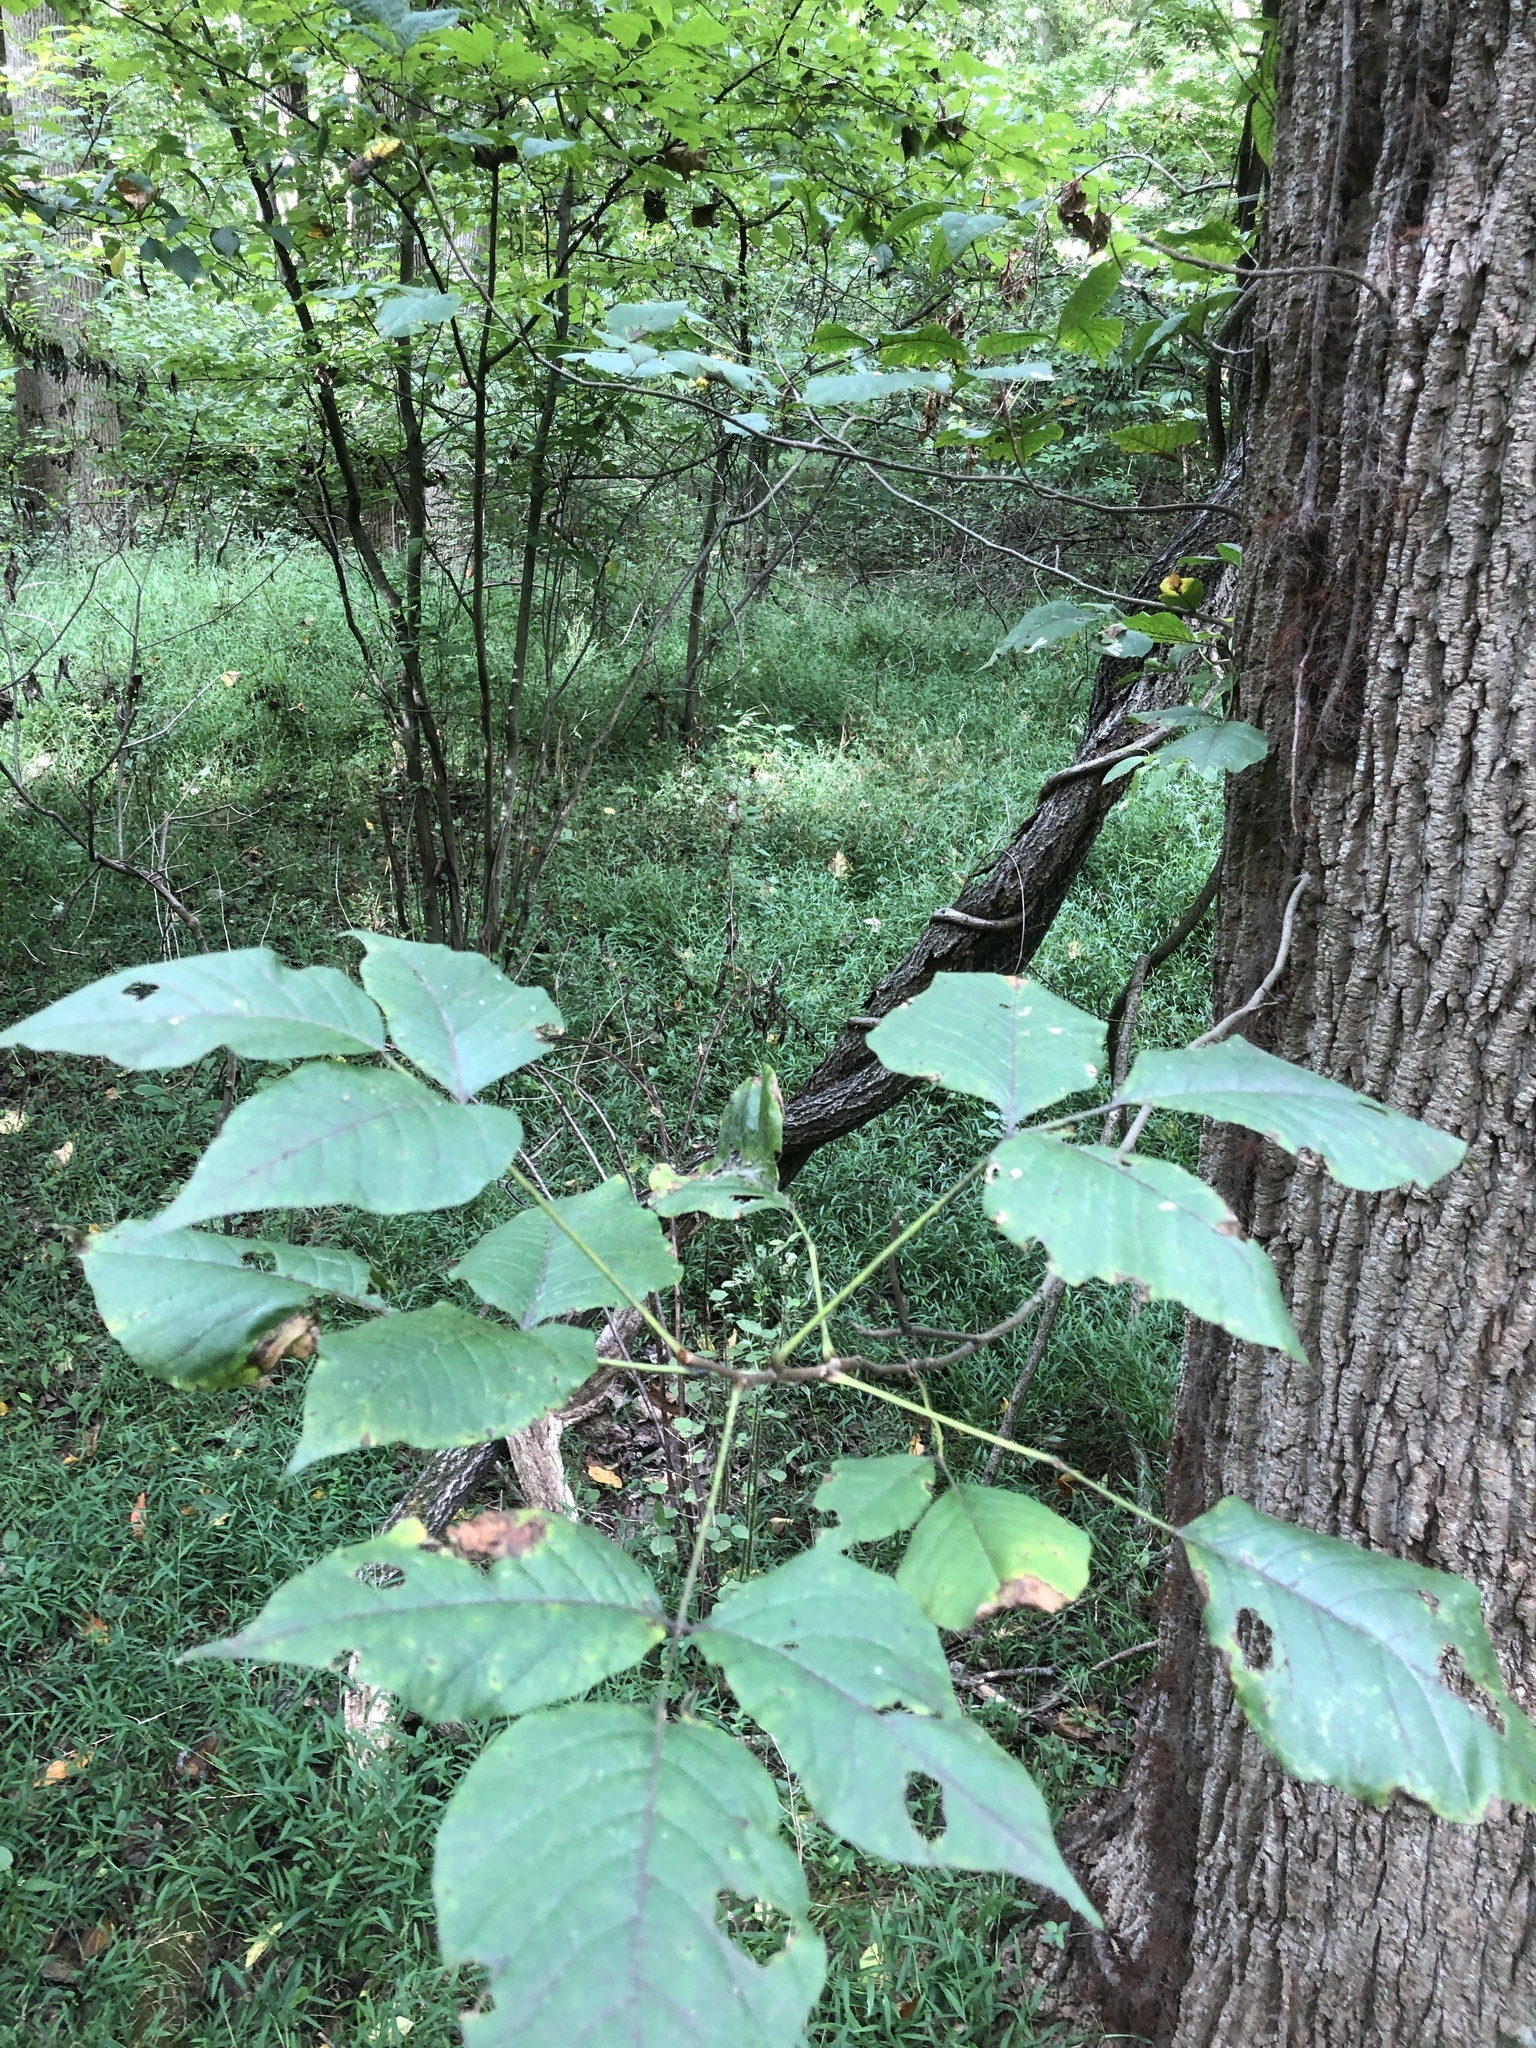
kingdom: Plantae
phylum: Tracheophyta
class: Magnoliopsida
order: Sapindales
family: Anacardiaceae
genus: Toxicodendron
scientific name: Toxicodendron radicans
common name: Poison ivy
